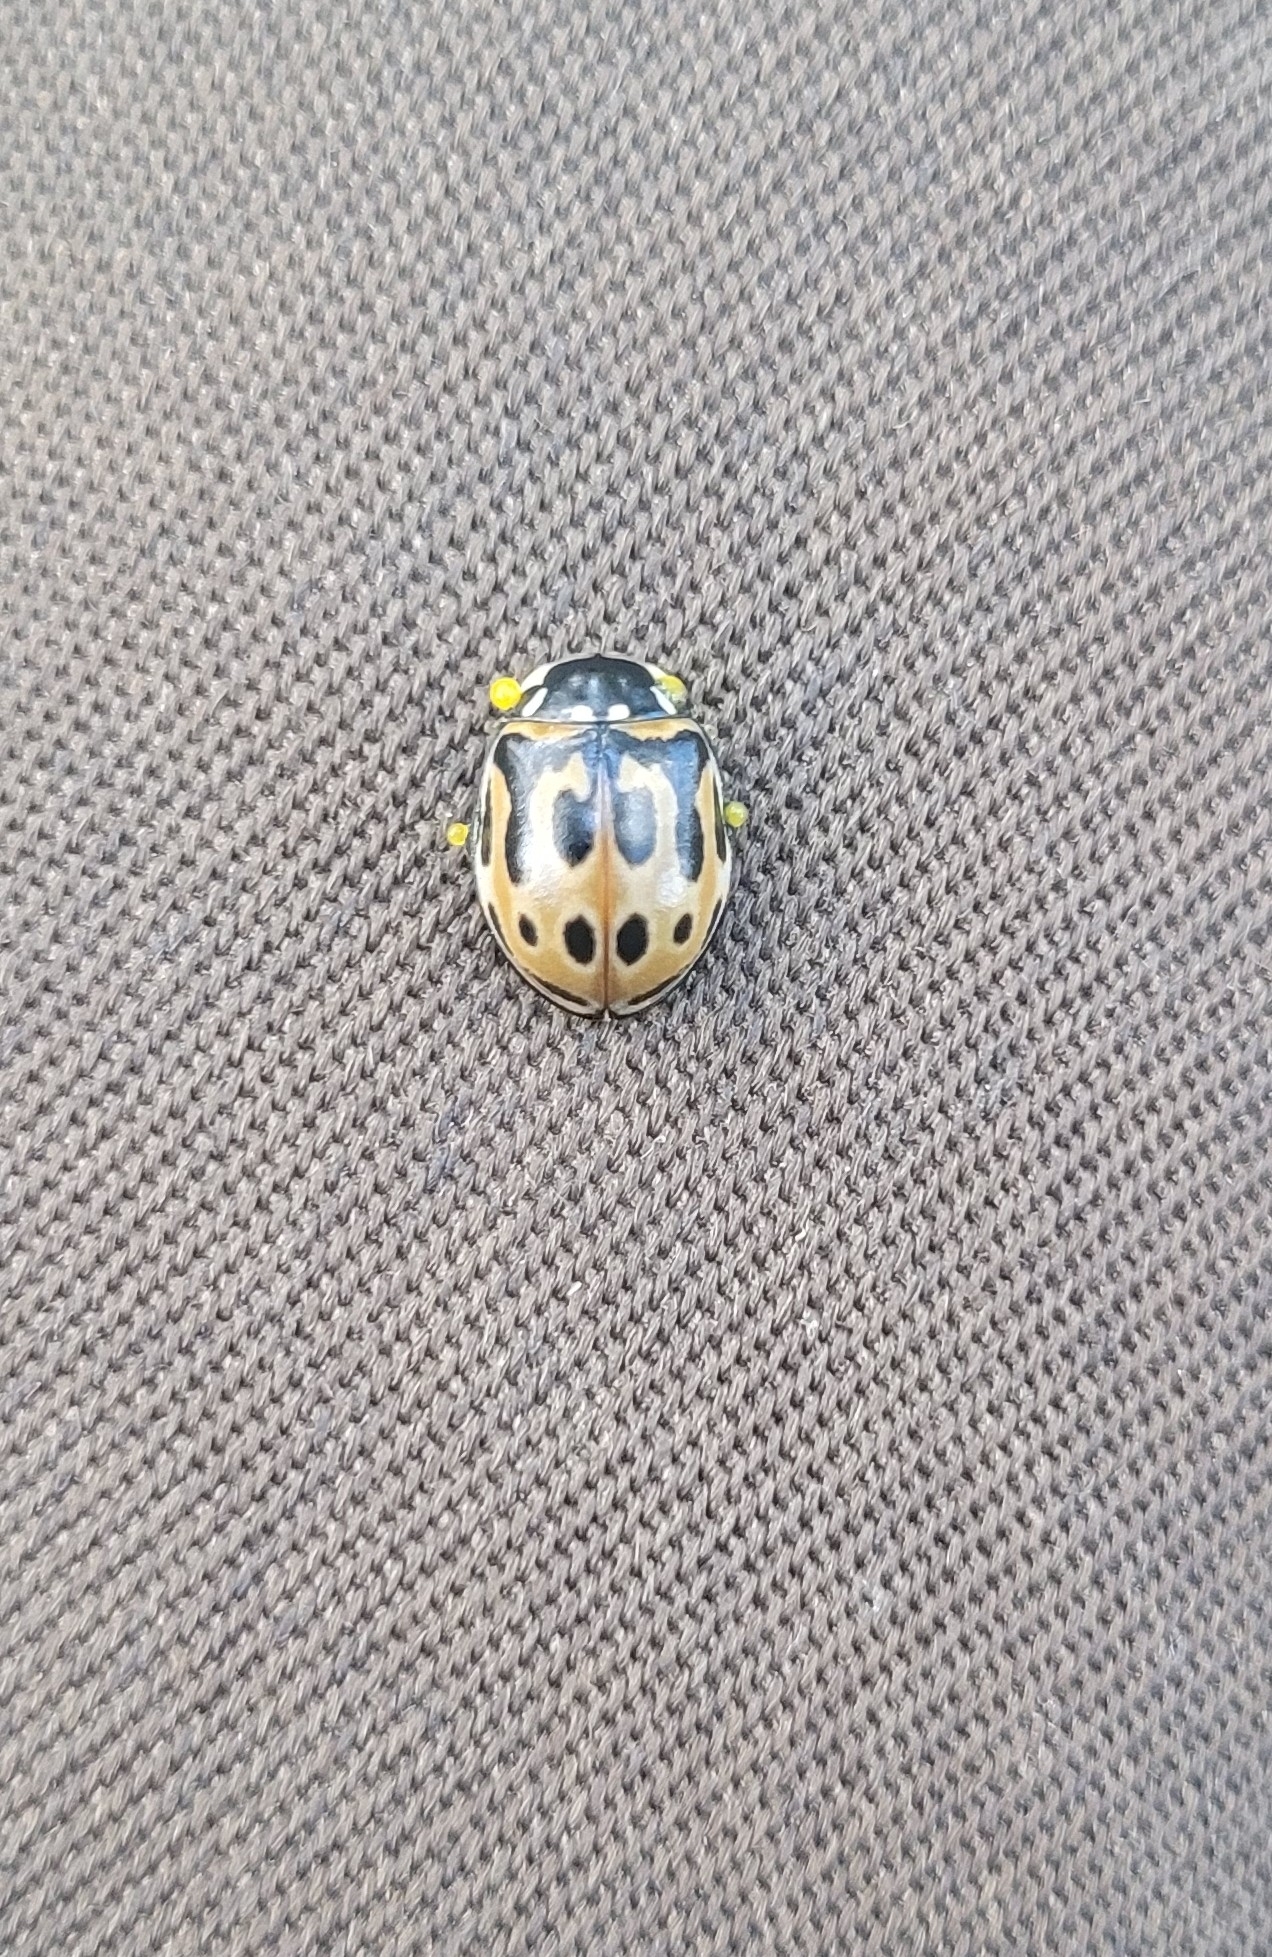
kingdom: Animalia
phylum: Arthropoda
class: Insecta
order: Coleoptera
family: Coccinellidae
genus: Anatis
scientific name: Anatis ocellata
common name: Eyed ladybird
